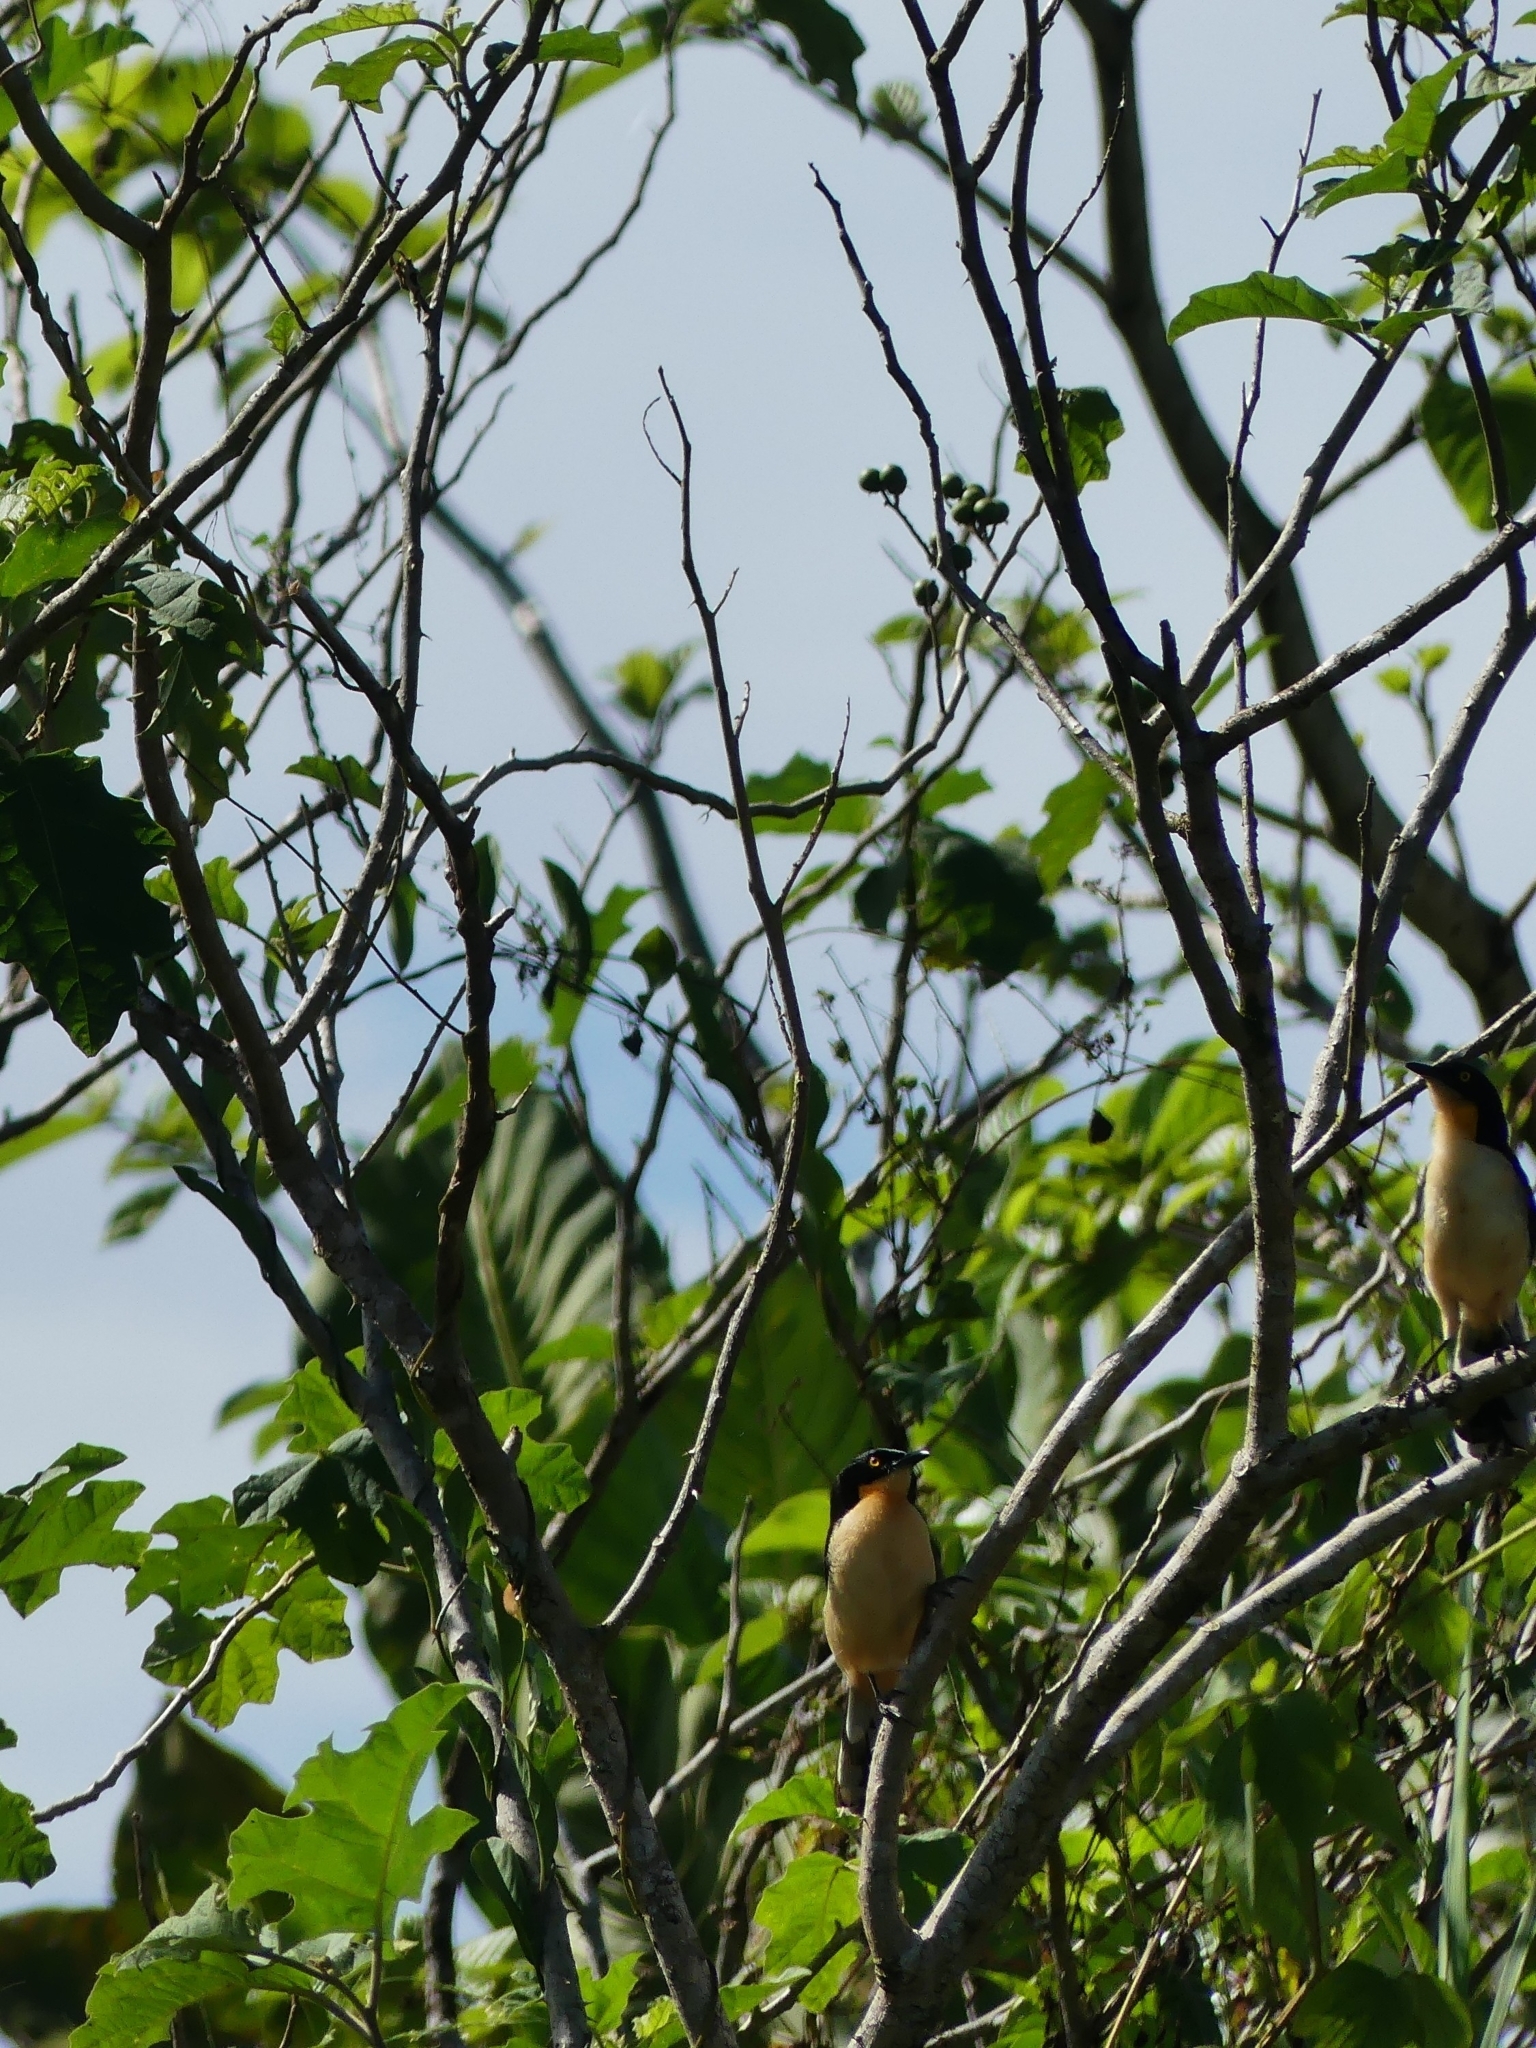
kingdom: Animalia
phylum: Chordata
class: Aves
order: Passeriformes
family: Donacobiidae
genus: Donacobius
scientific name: Donacobius atricapilla
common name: Black-capped donacobius
